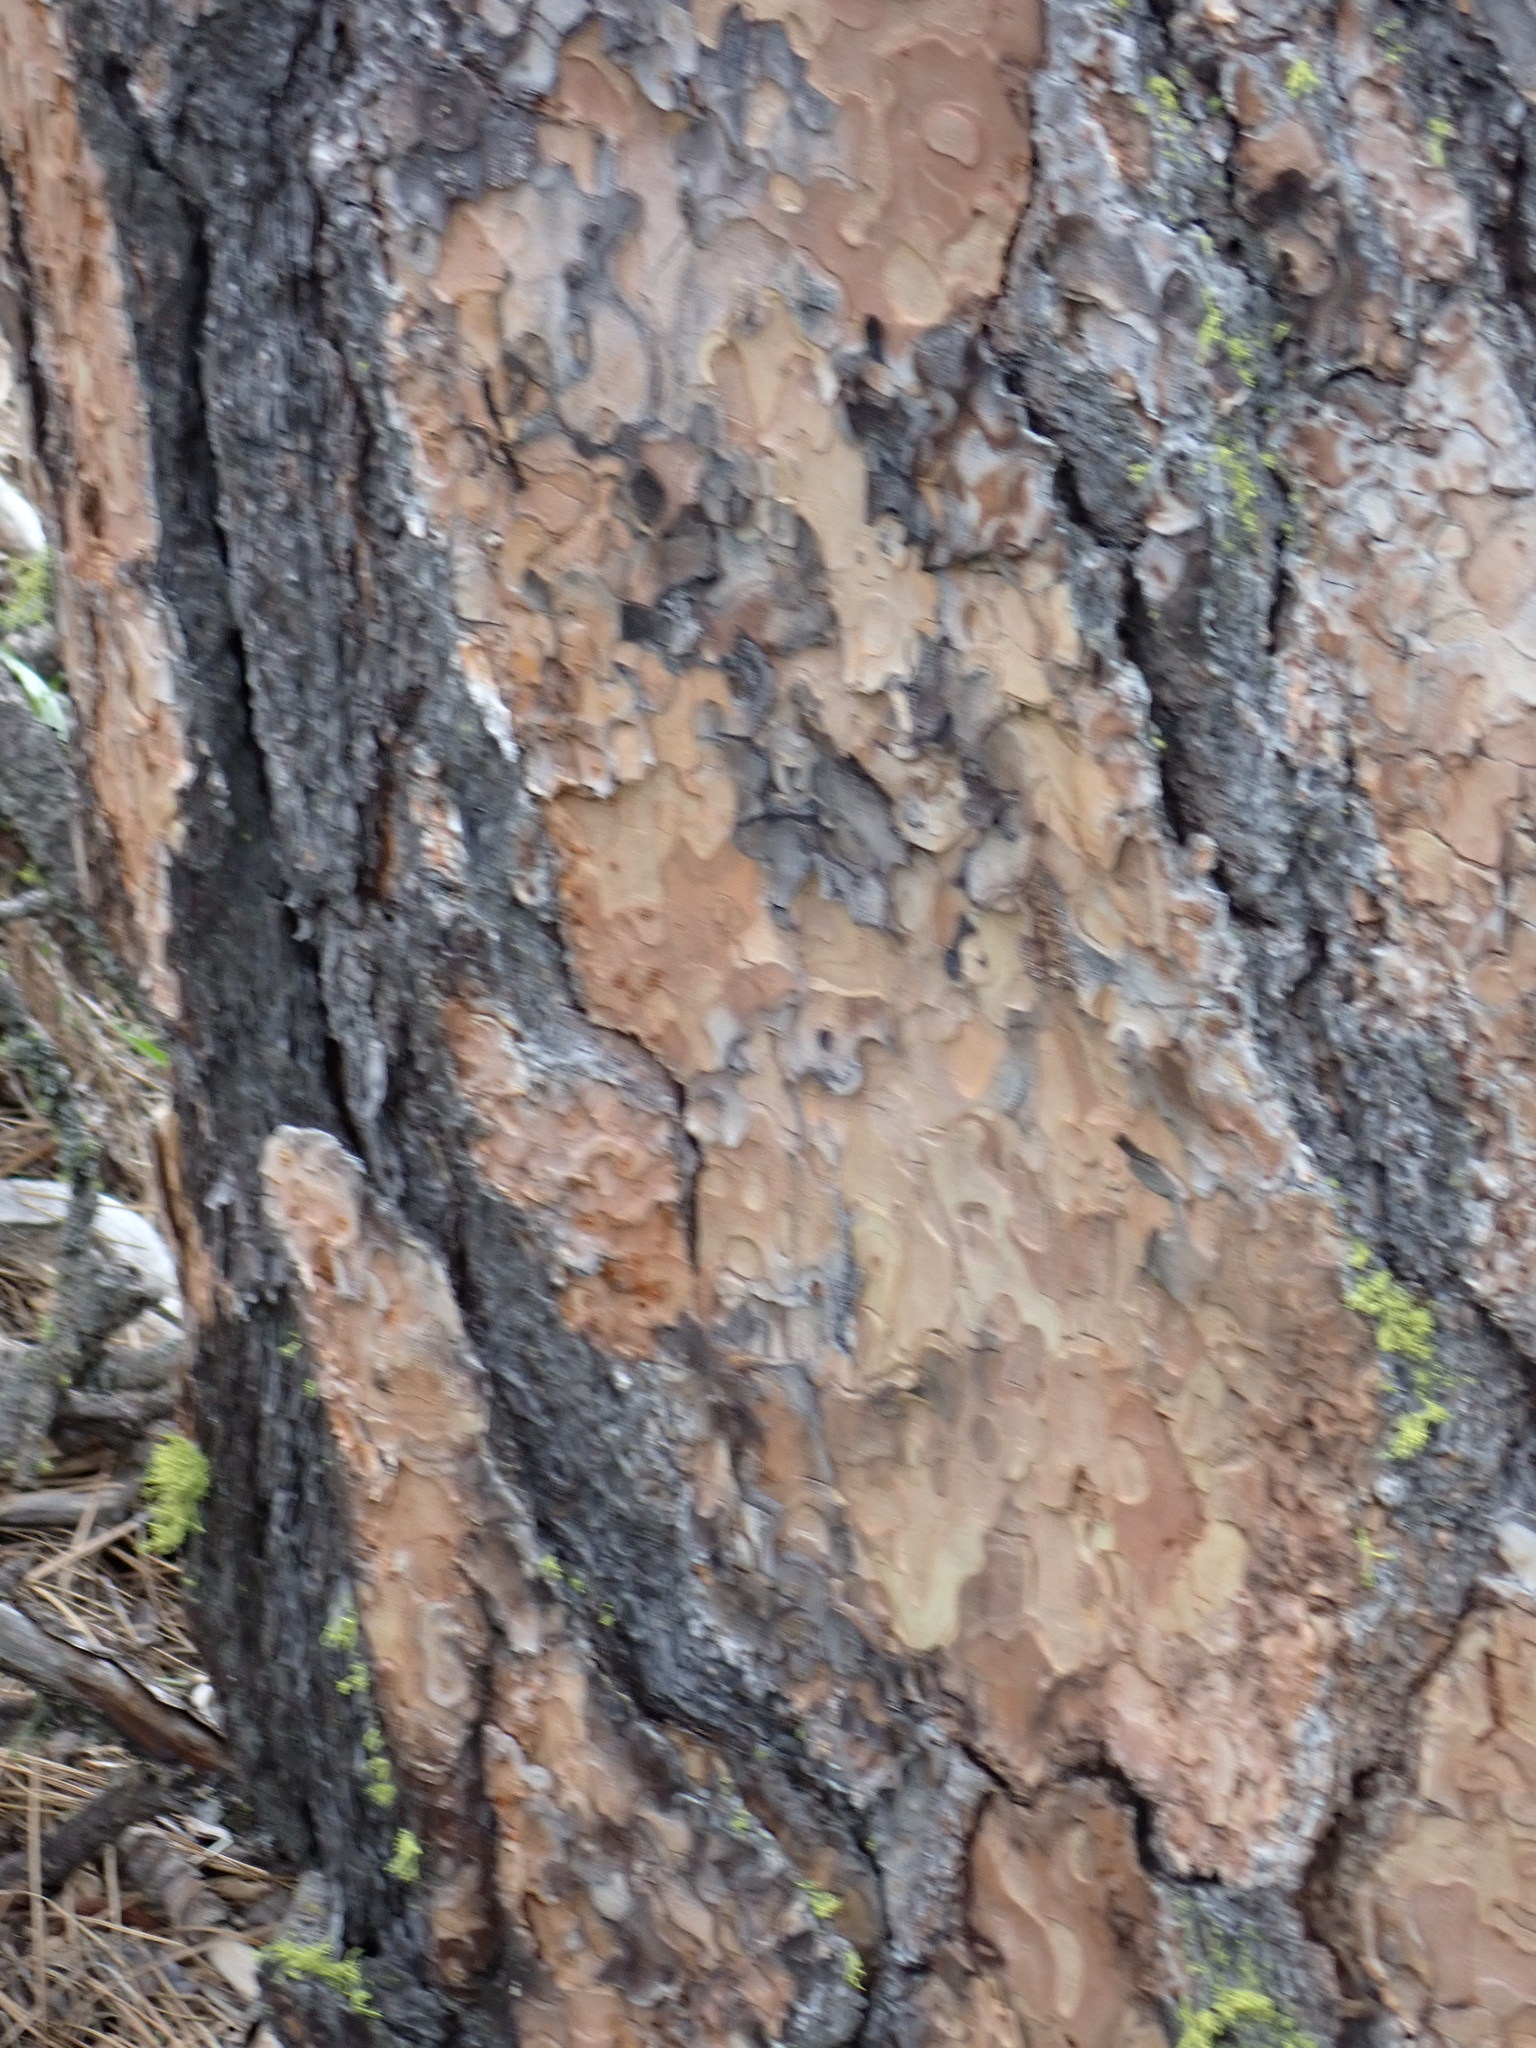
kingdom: Plantae
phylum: Tracheophyta
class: Pinopsida
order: Pinales
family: Pinaceae
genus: Pinus
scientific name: Pinus ponderosa
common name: Western yellow-pine
